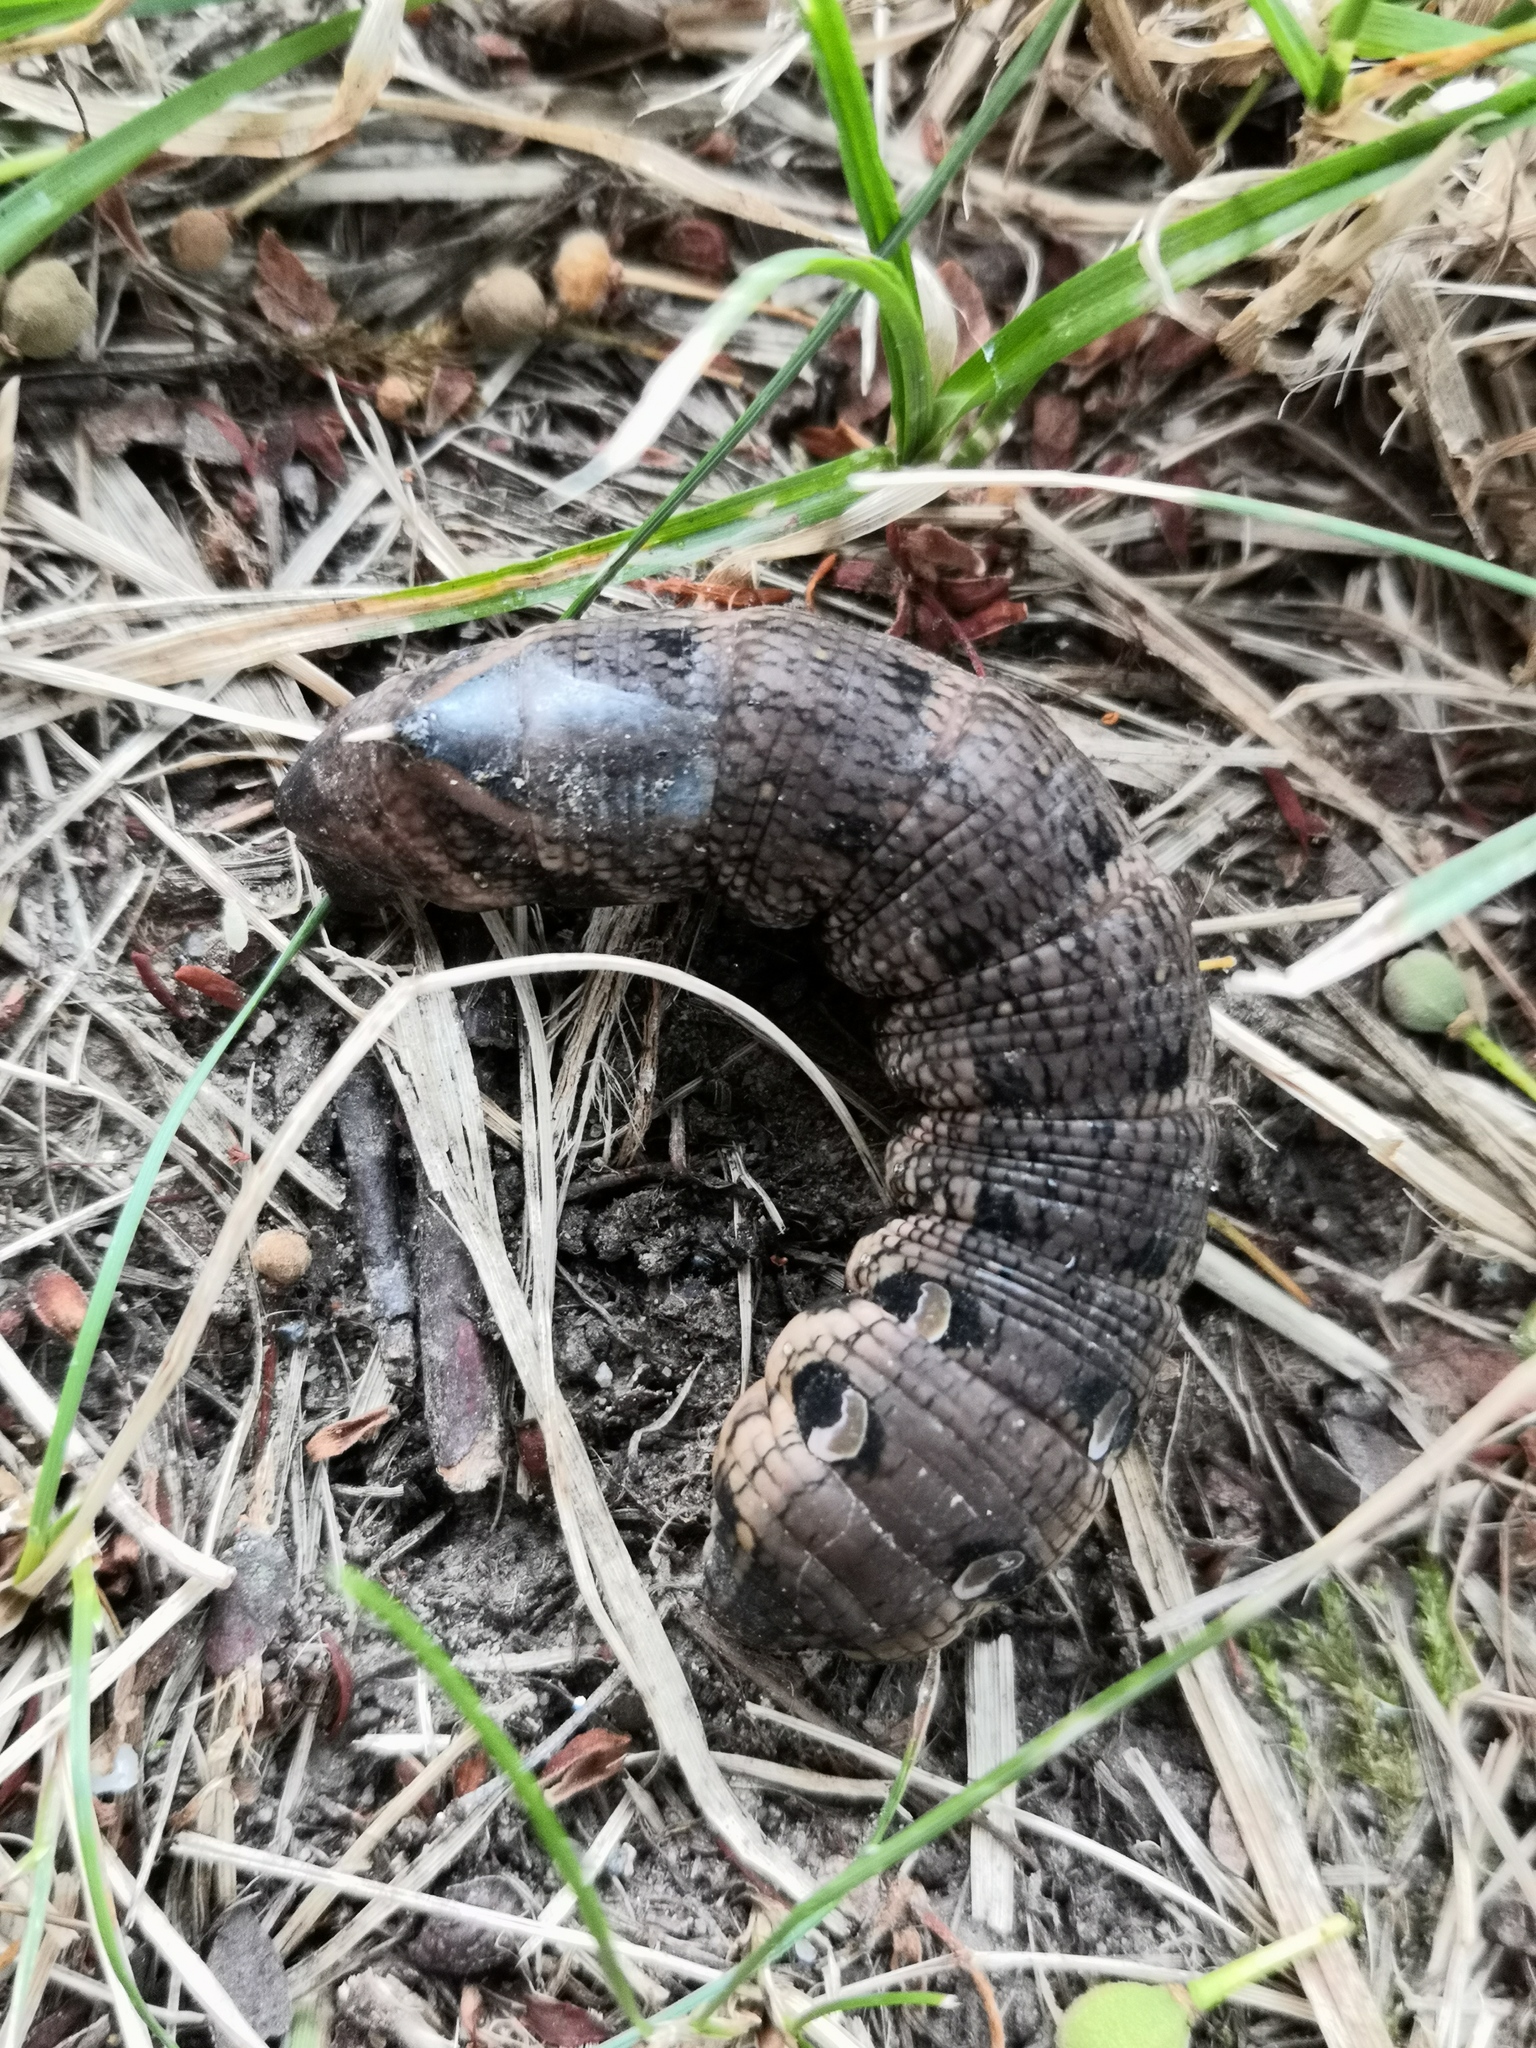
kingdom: Animalia
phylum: Arthropoda
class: Insecta
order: Lepidoptera
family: Sphingidae
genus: Deilephila
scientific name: Deilephila elpenor
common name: Elephant hawk-moth
